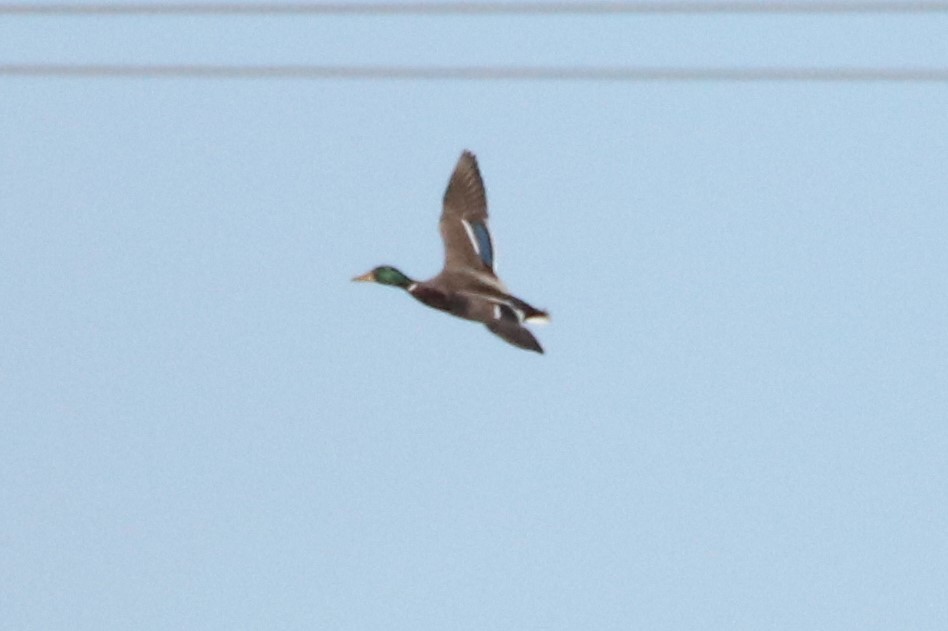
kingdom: Animalia
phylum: Chordata
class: Aves
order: Anseriformes
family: Anatidae
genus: Anas
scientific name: Anas platyrhynchos
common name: Mallard
